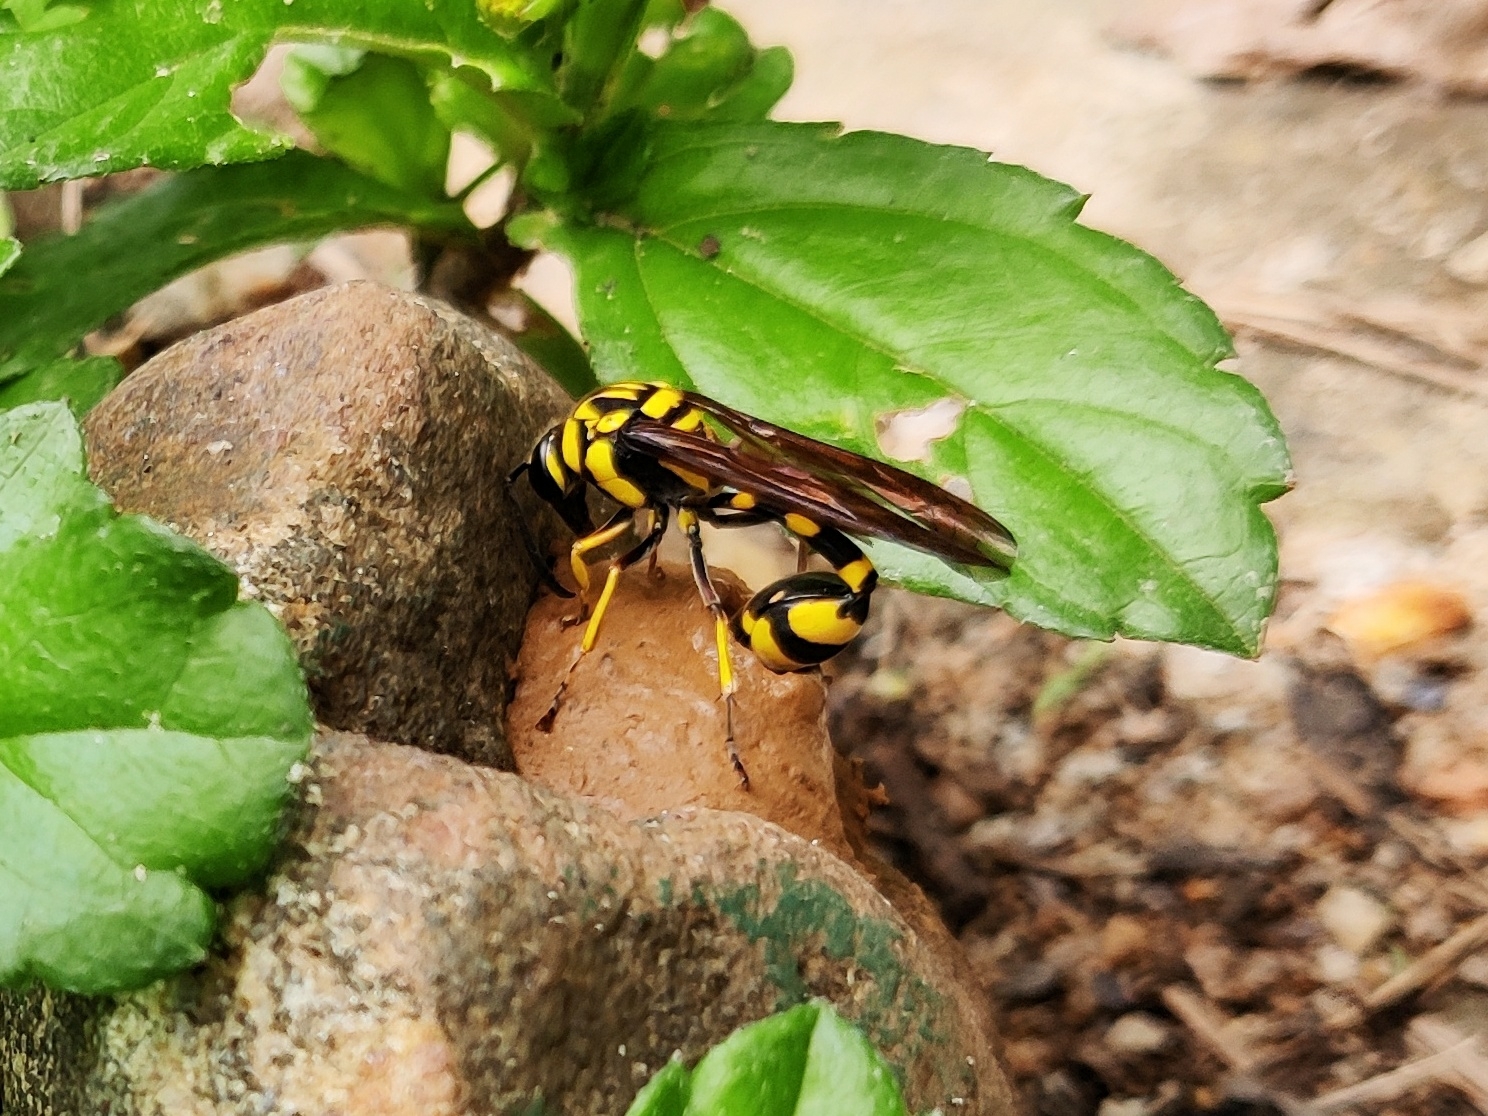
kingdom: Animalia
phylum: Arthropoda
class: Insecta
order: Hymenoptera
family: Eumenidae
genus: Phimenes
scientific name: Phimenes flavopictus
